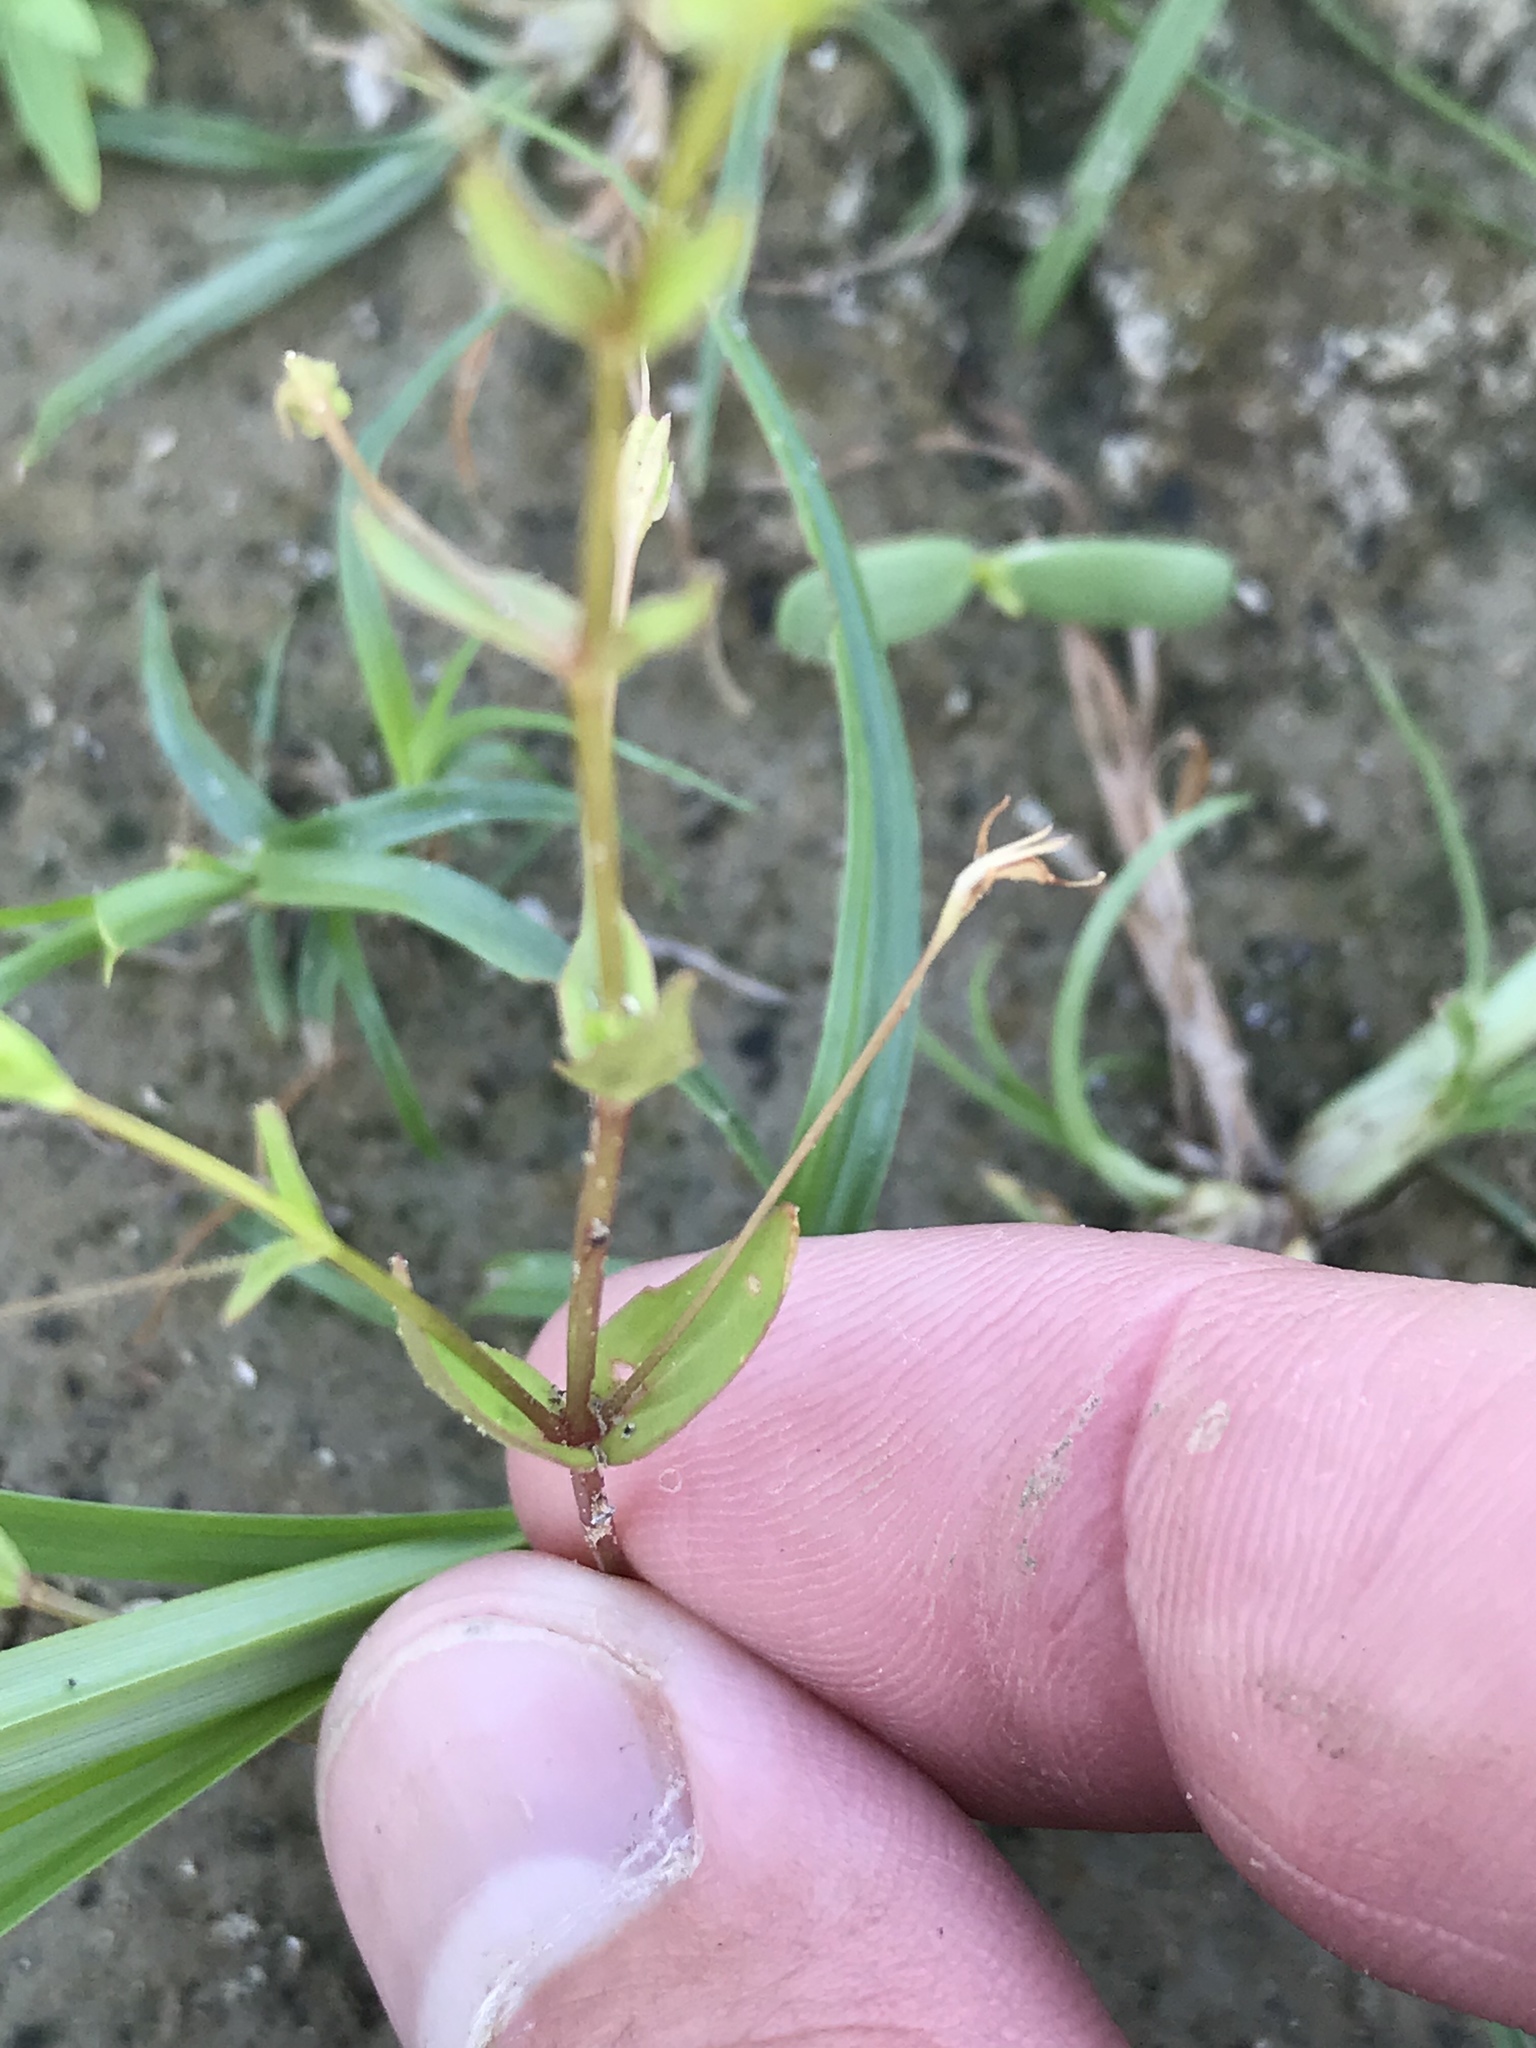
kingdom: Plantae
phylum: Tracheophyta
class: Magnoliopsida
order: Lamiales
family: Linderniaceae
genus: Lindernia
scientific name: Lindernia dubia
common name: Annual false pimpernel
